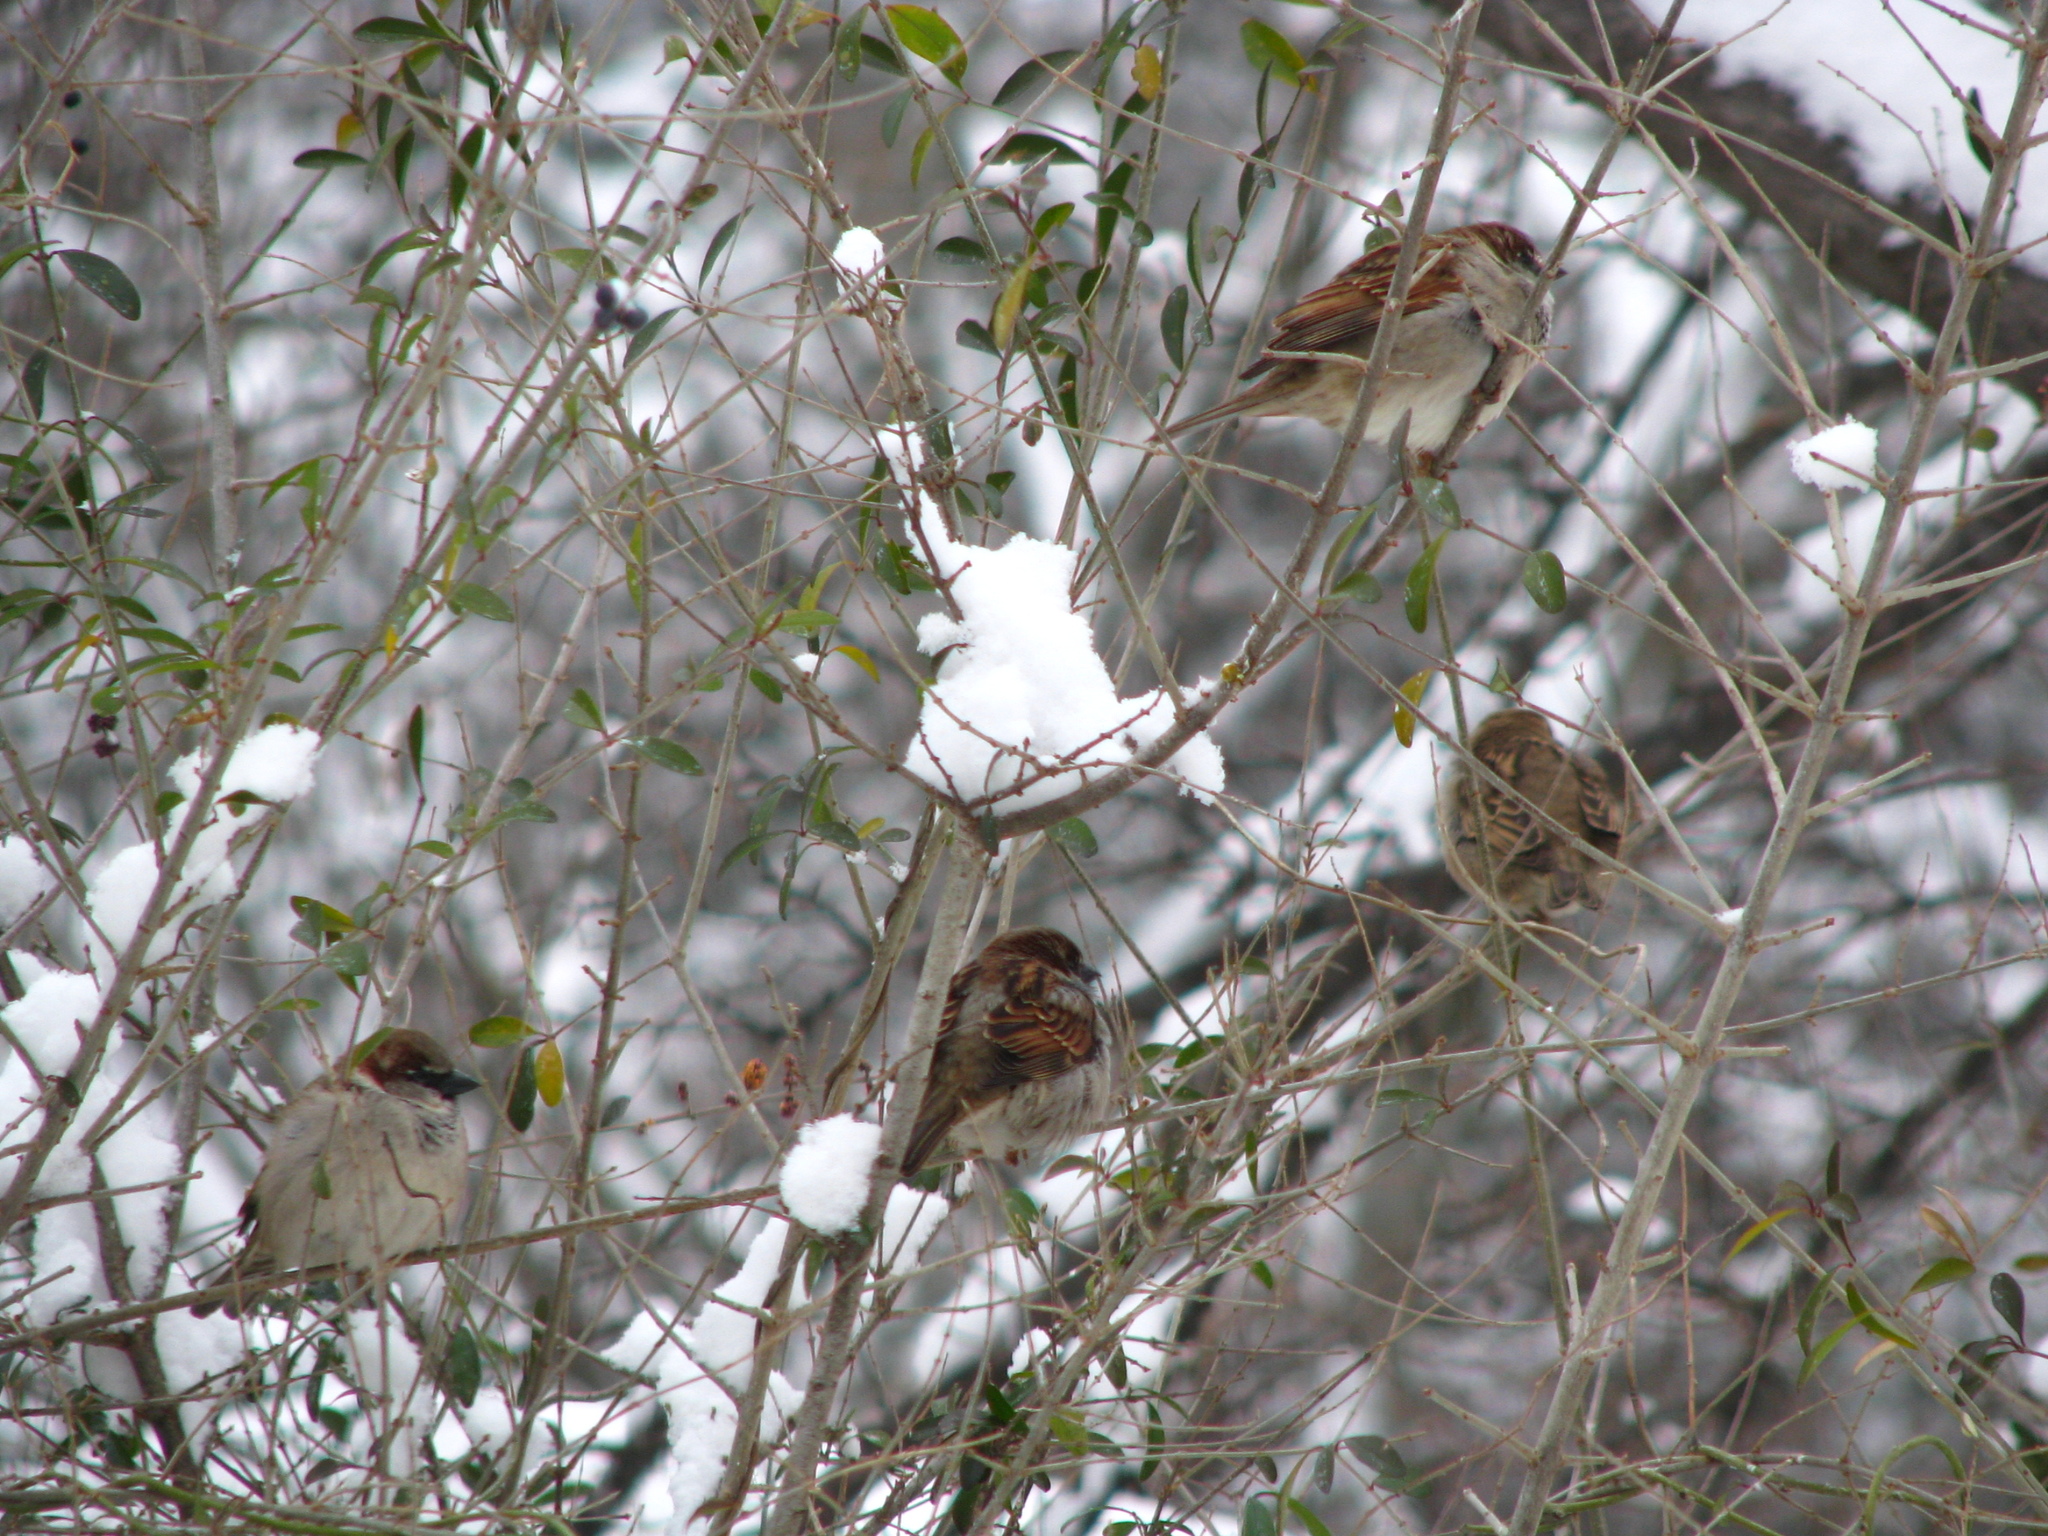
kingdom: Animalia
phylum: Chordata
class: Aves
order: Passeriformes
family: Passeridae
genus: Passer
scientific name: Passer domesticus
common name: House sparrow
